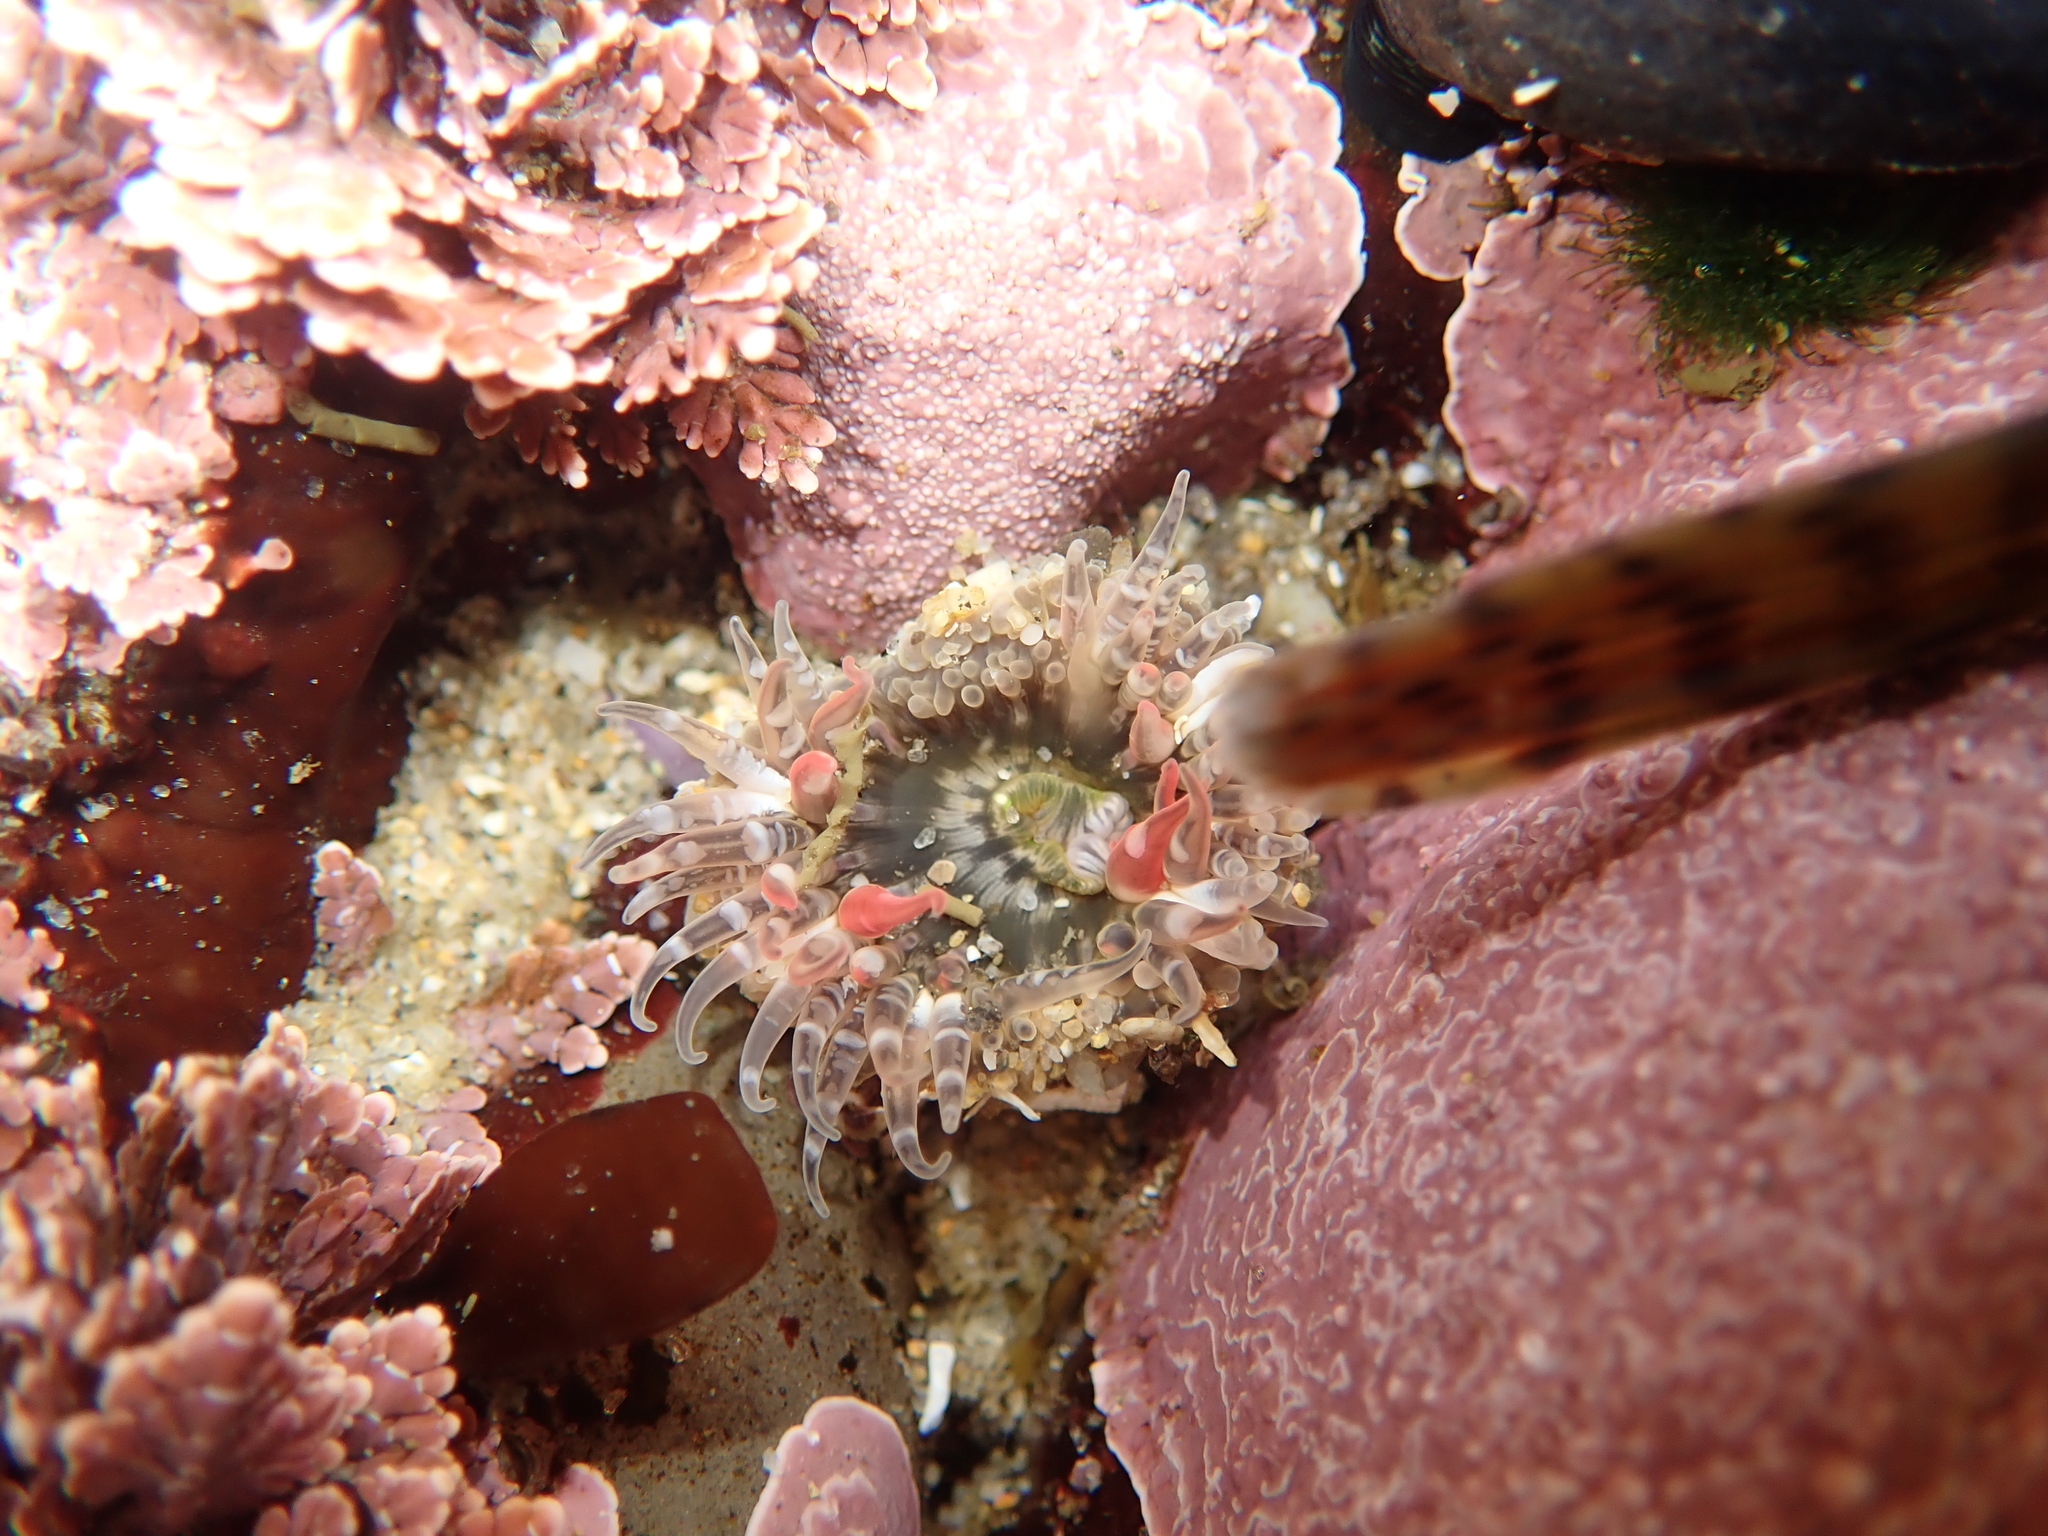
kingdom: Animalia
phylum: Cnidaria
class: Anthozoa
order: Actiniaria
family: Actiniidae
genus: Anthopleura
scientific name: Anthopleura artemisia
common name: Buried sea anemone
